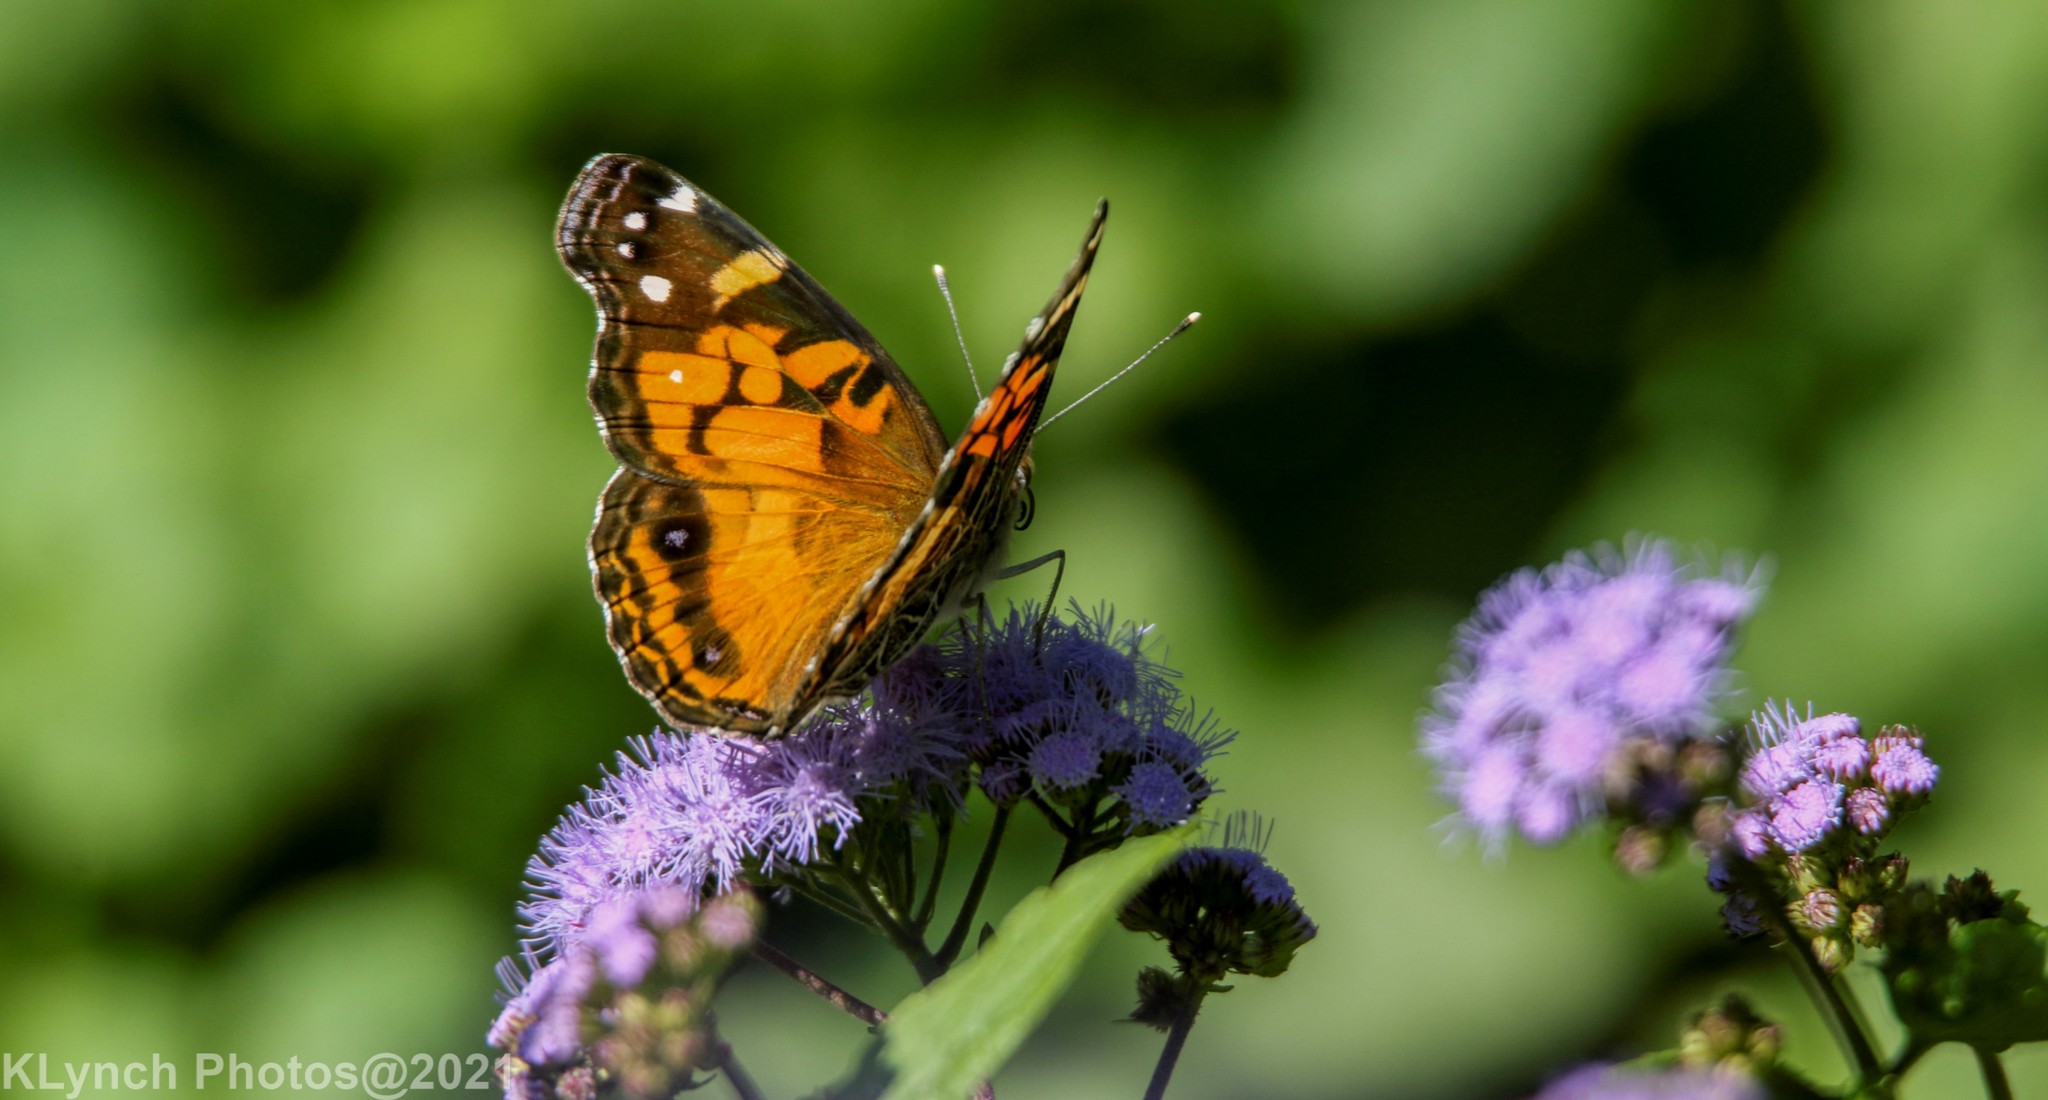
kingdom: Animalia
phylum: Arthropoda
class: Insecta
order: Lepidoptera
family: Nymphalidae
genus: Vanessa
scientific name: Vanessa virginiensis
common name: American lady
